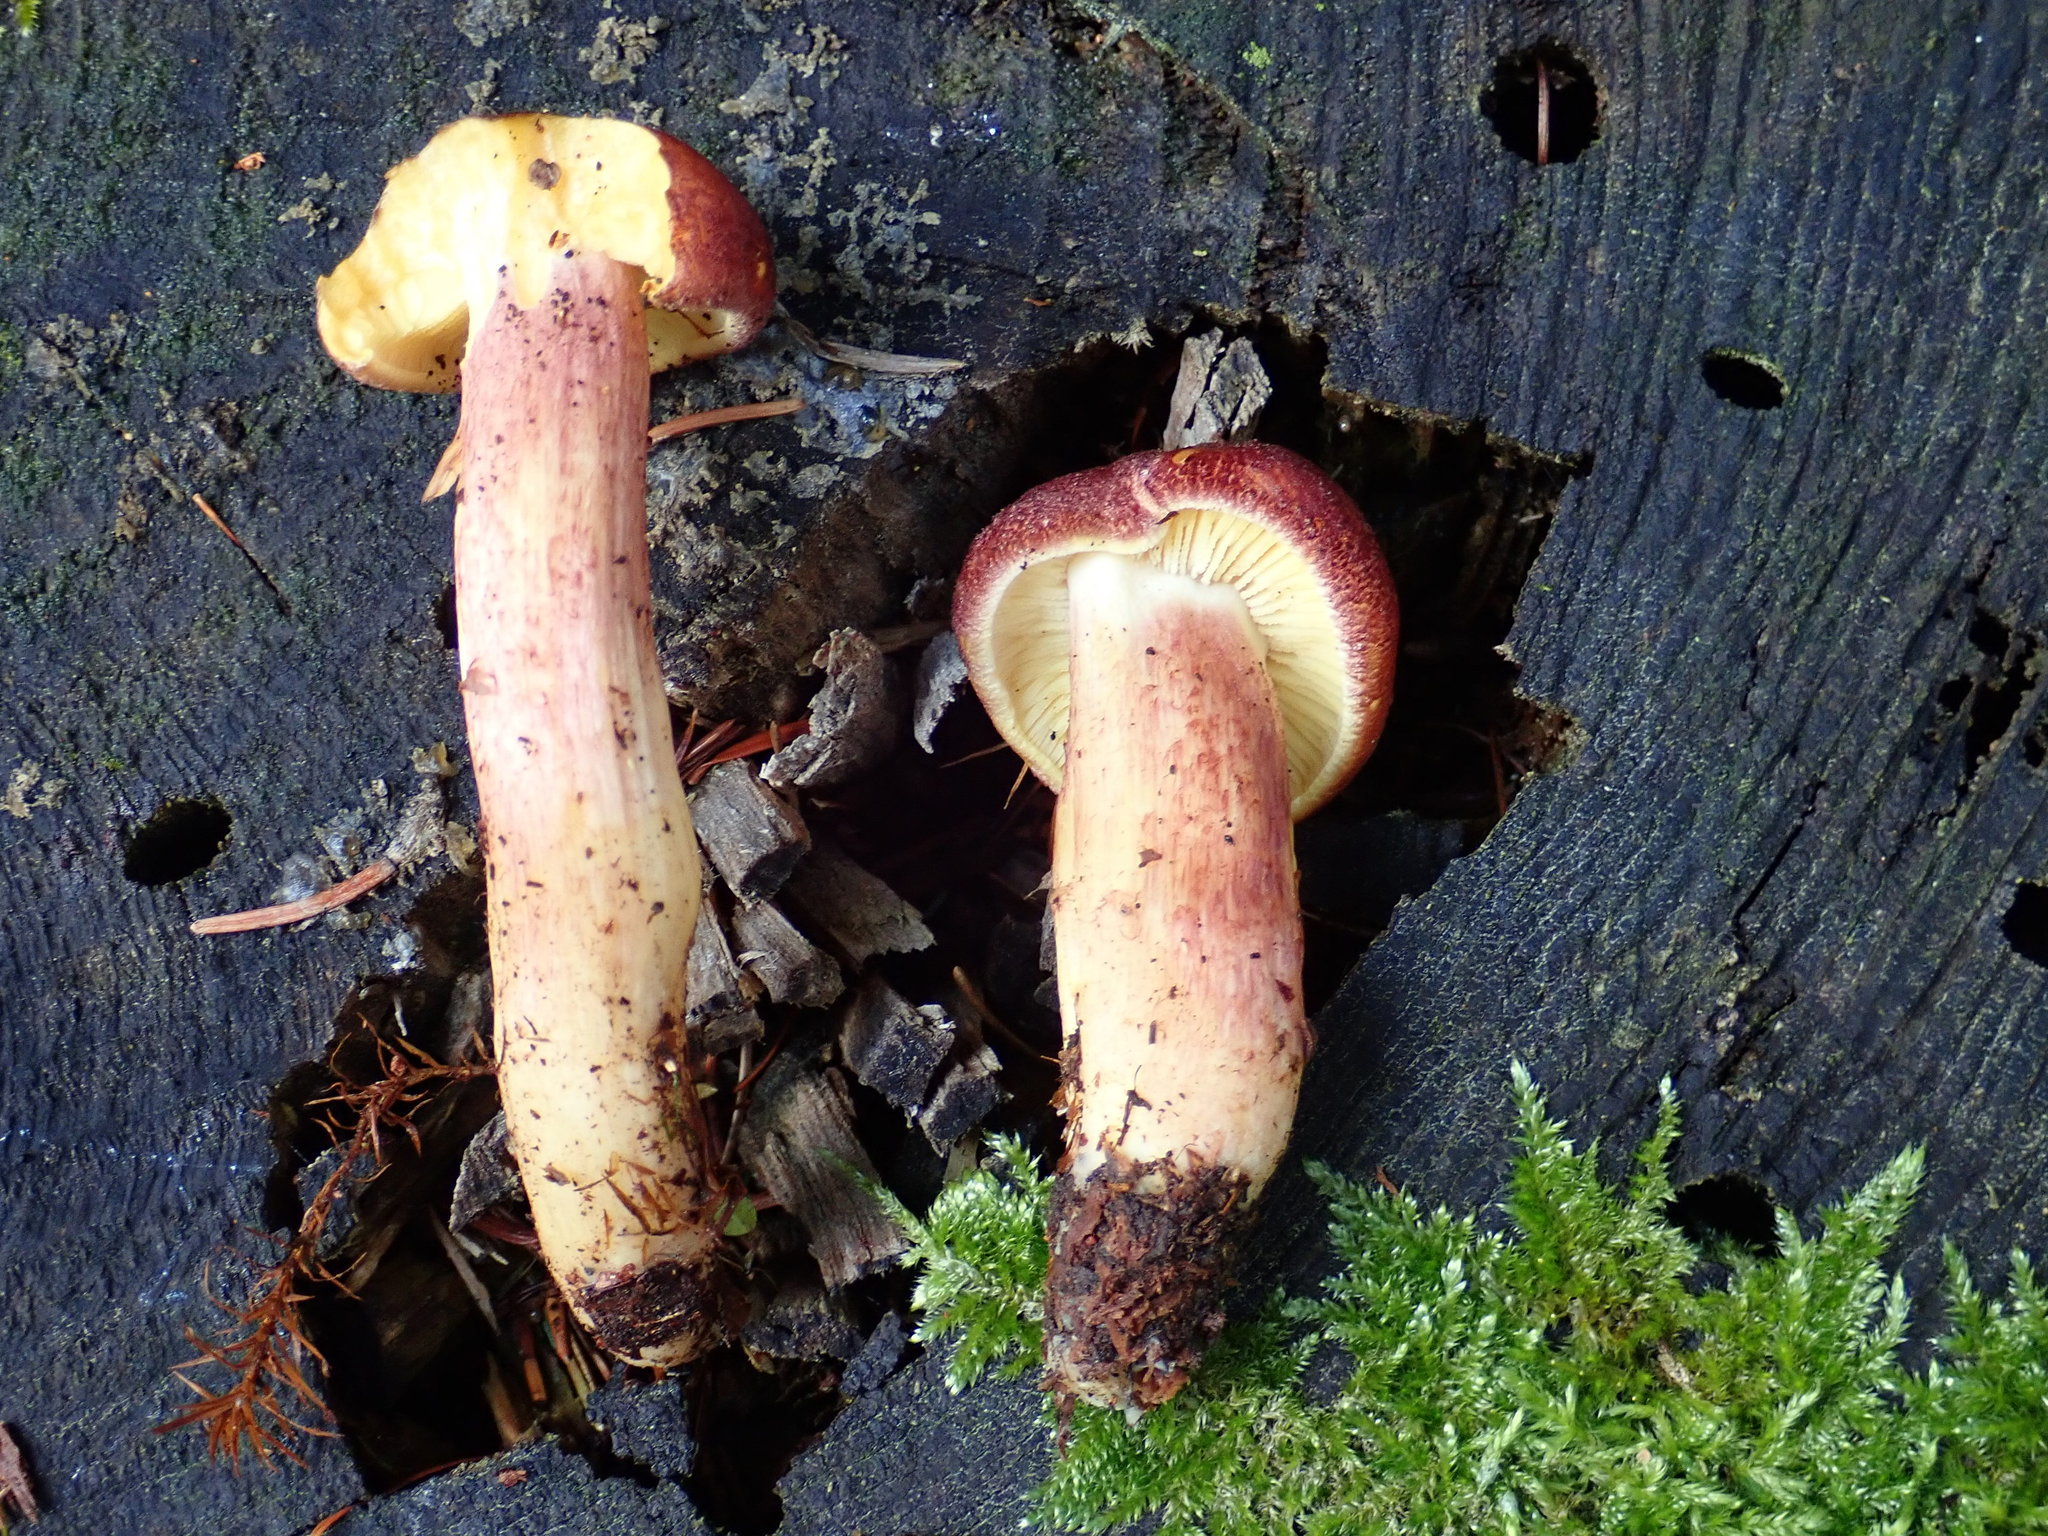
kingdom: Fungi
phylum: Basidiomycota
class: Agaricomycetes
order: Agaricales
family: Tricholomataceae
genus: Tricholomopsis
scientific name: Tricholomopsis rutilans
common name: Plums and custard
